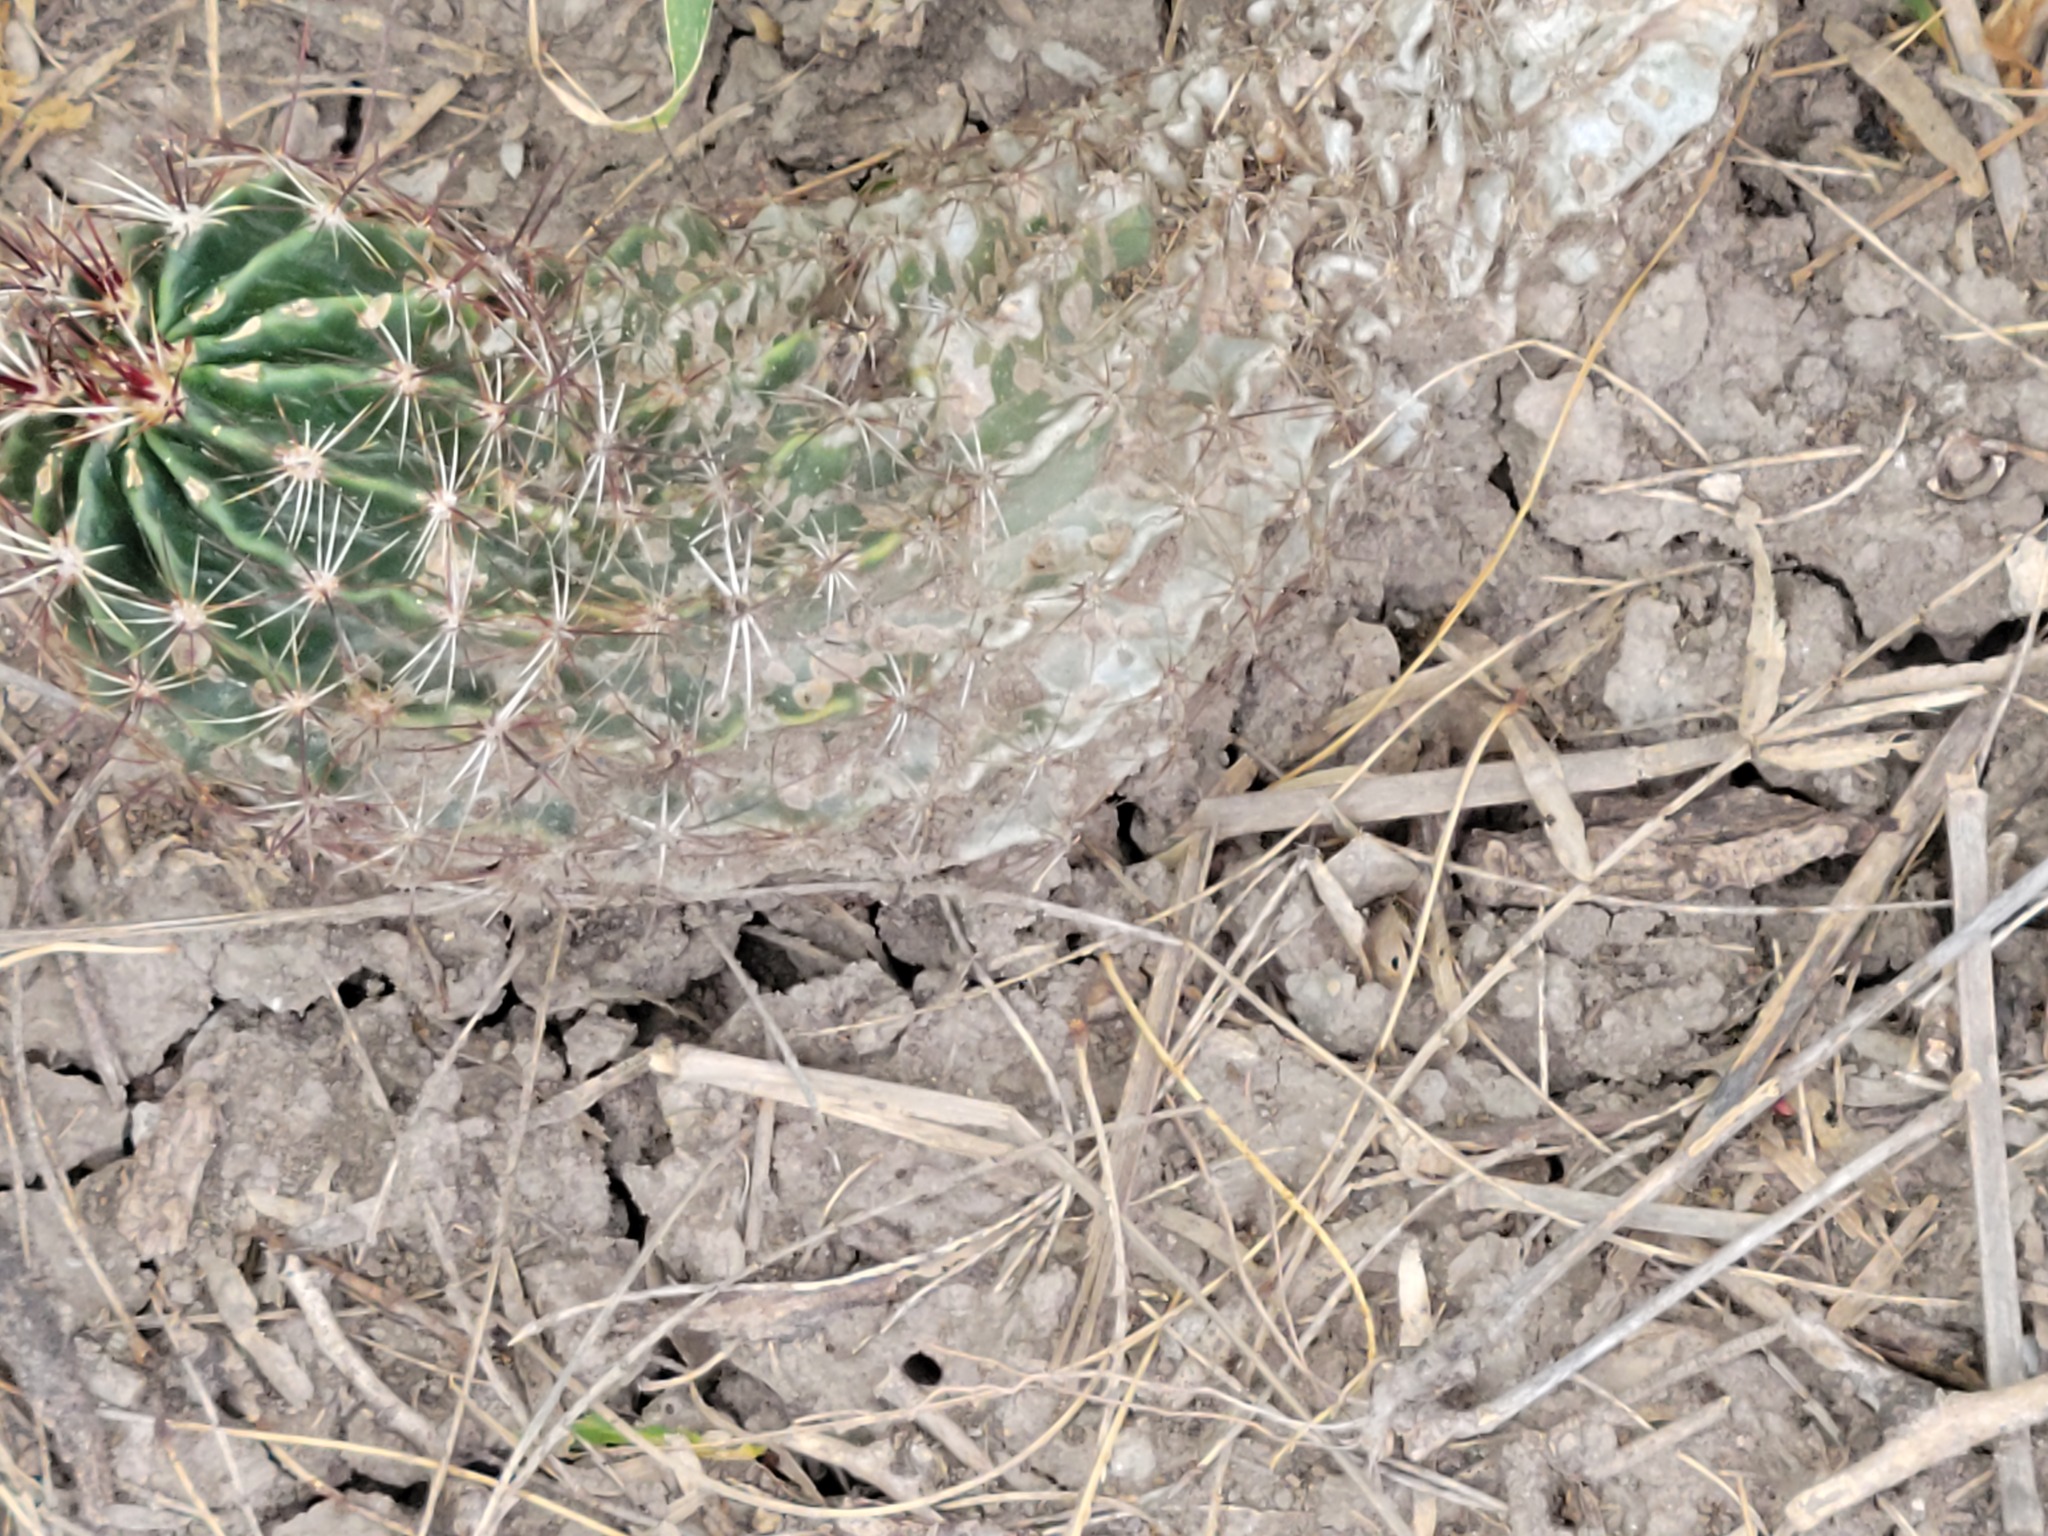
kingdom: Plantae
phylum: Tracheophyta
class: Magnoliopsida
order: Caryophyllales
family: Cactaceae
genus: Thelocactus
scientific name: Thelocactus setispinus
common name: Miniature barrel cactus
